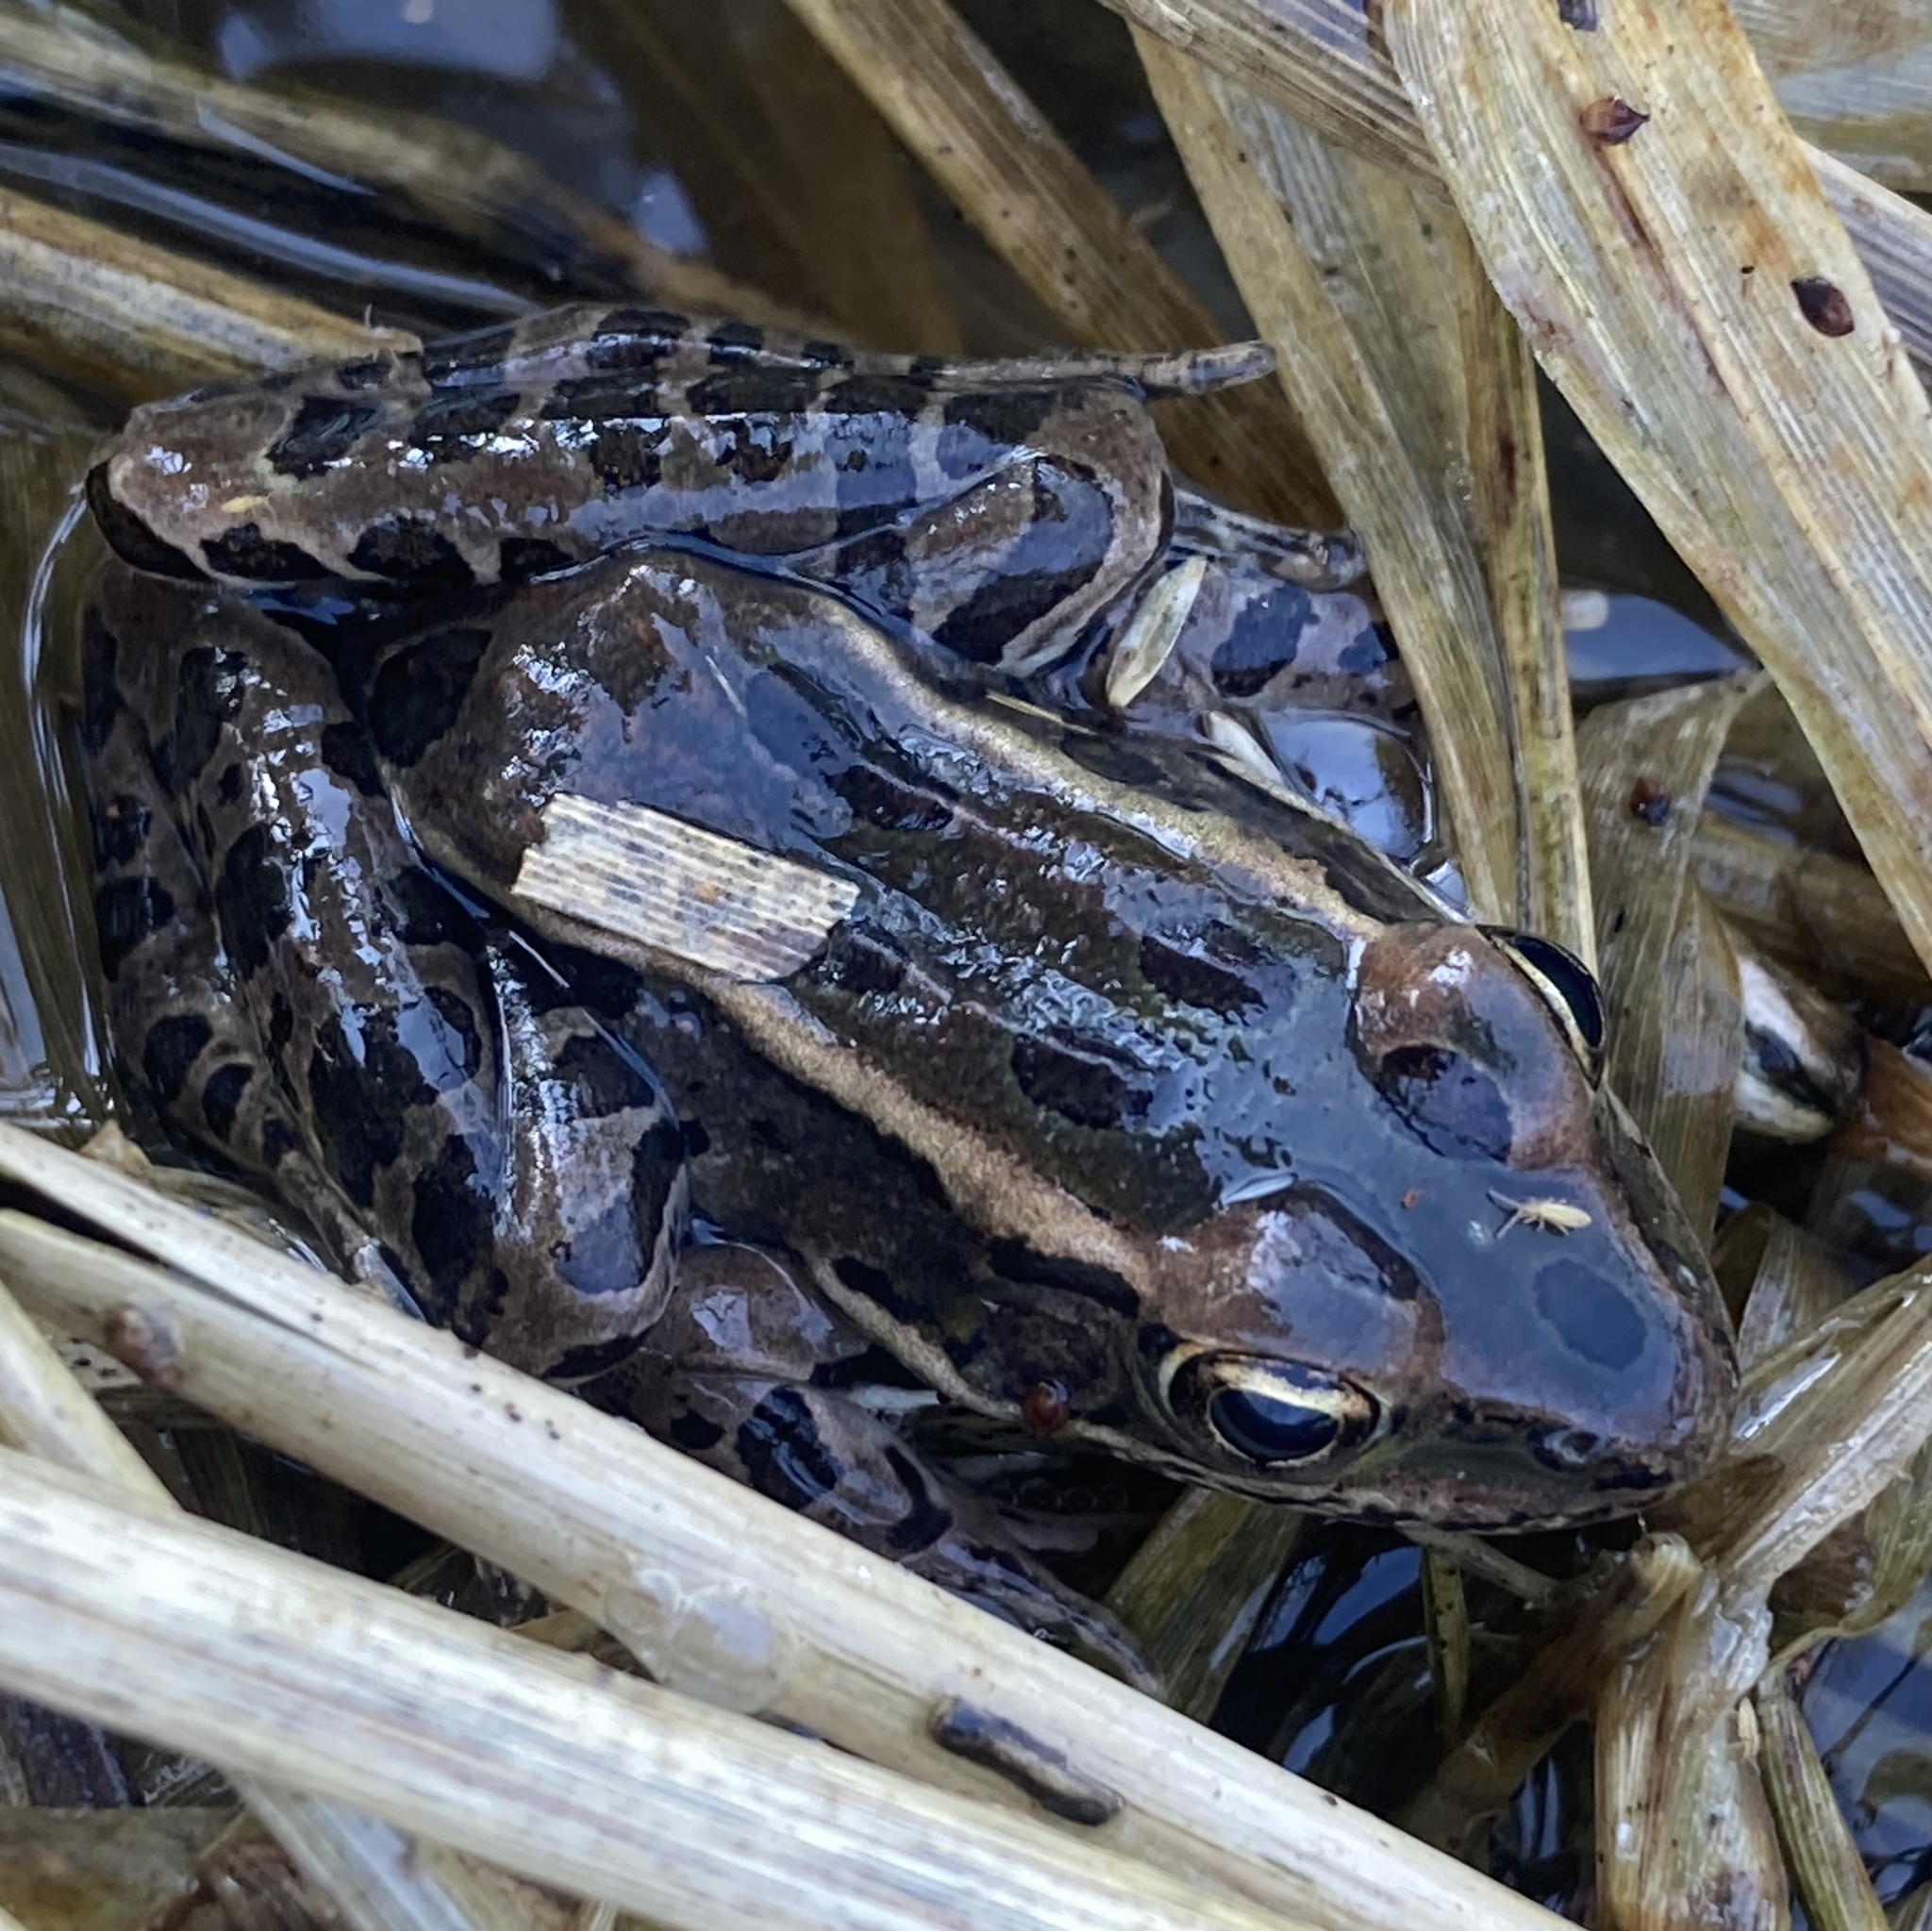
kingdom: Animalia
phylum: Chordata
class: Amphibia
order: Anura
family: Ranidae
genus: Lithobates
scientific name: Lithobates pipiens
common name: Northern leopard frog
